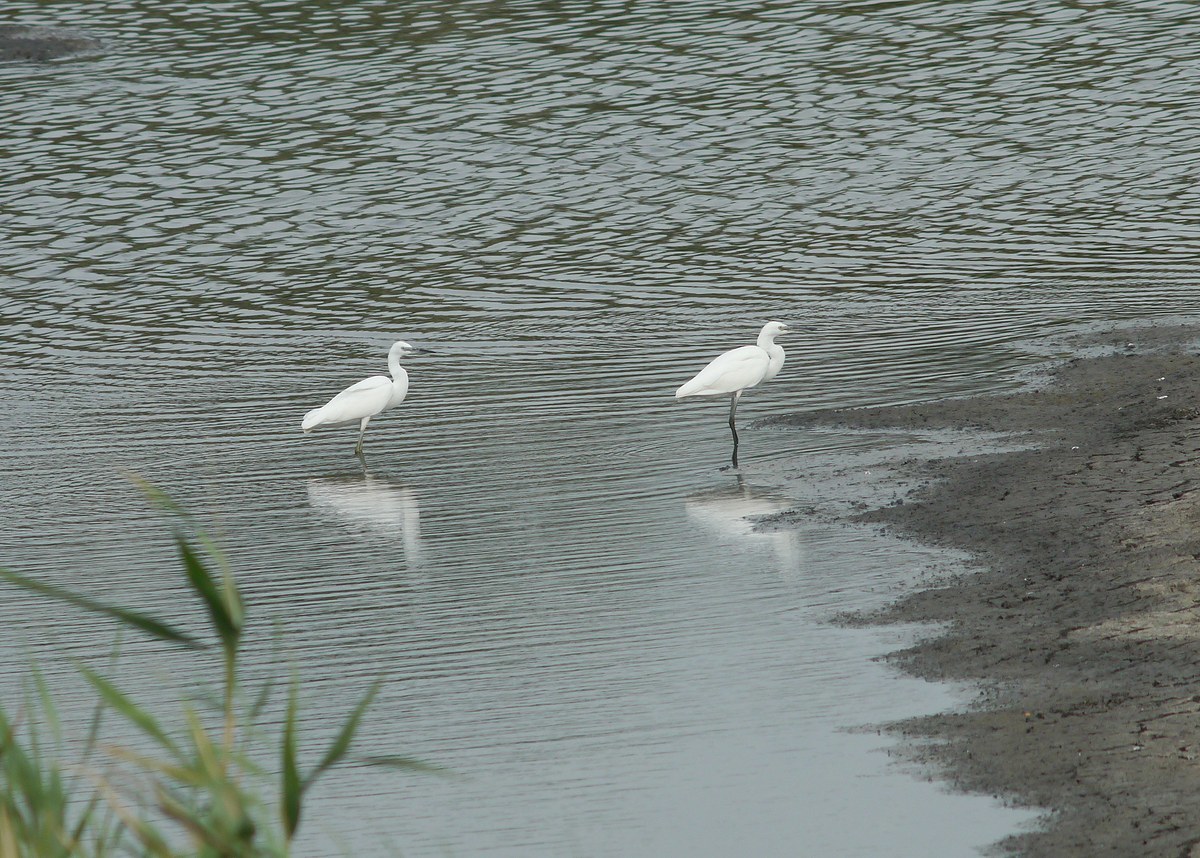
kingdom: Animalia
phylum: Chordata
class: Aves
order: Pelecaniformes
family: Ardeidae
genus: Egretta
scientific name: Egretta garzetta
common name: Little egret
